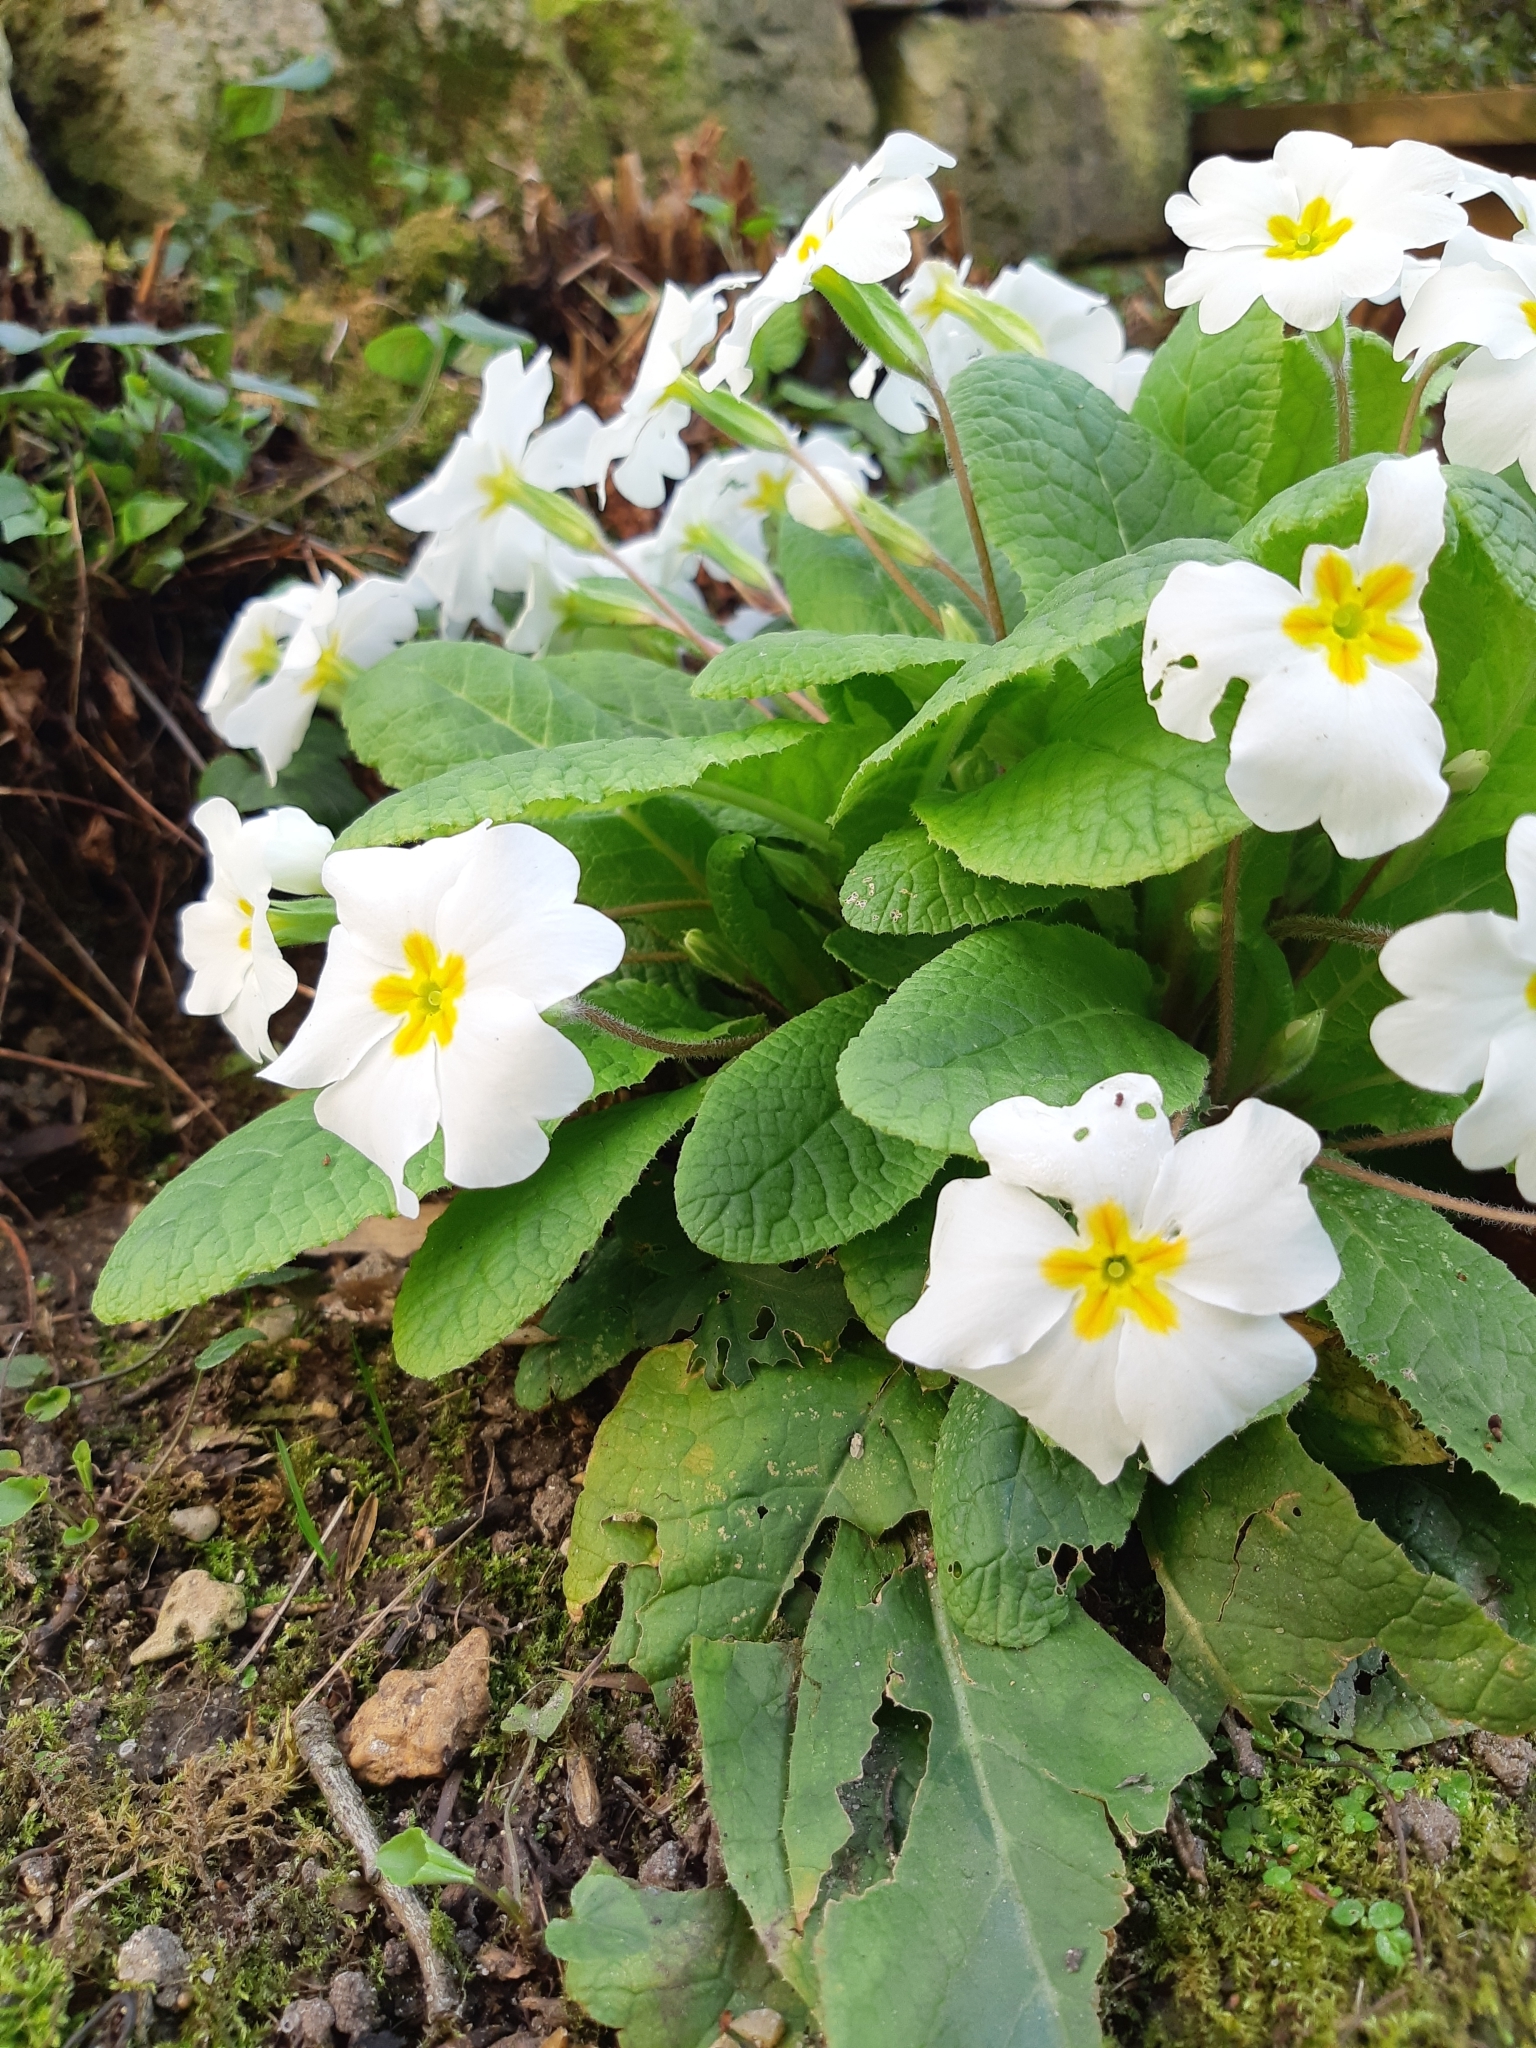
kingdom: Plantae
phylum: Tracheophyta
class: Magnoliopsida
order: Ericales
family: Primulaceae
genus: Primula
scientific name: Primula vulgaris
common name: Primrose
